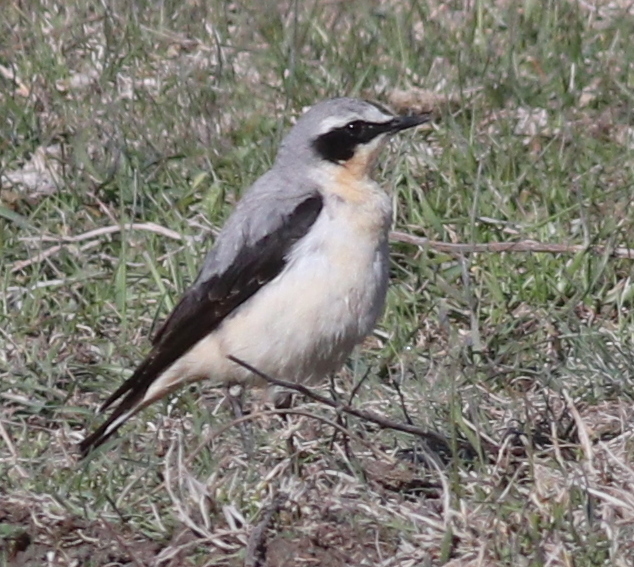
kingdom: Animalia
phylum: Chordata
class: Aves
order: Passeriformes
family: Muscicapidae
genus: Oenanthe
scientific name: Oenanthe oenanthe
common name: Northern wheatear
